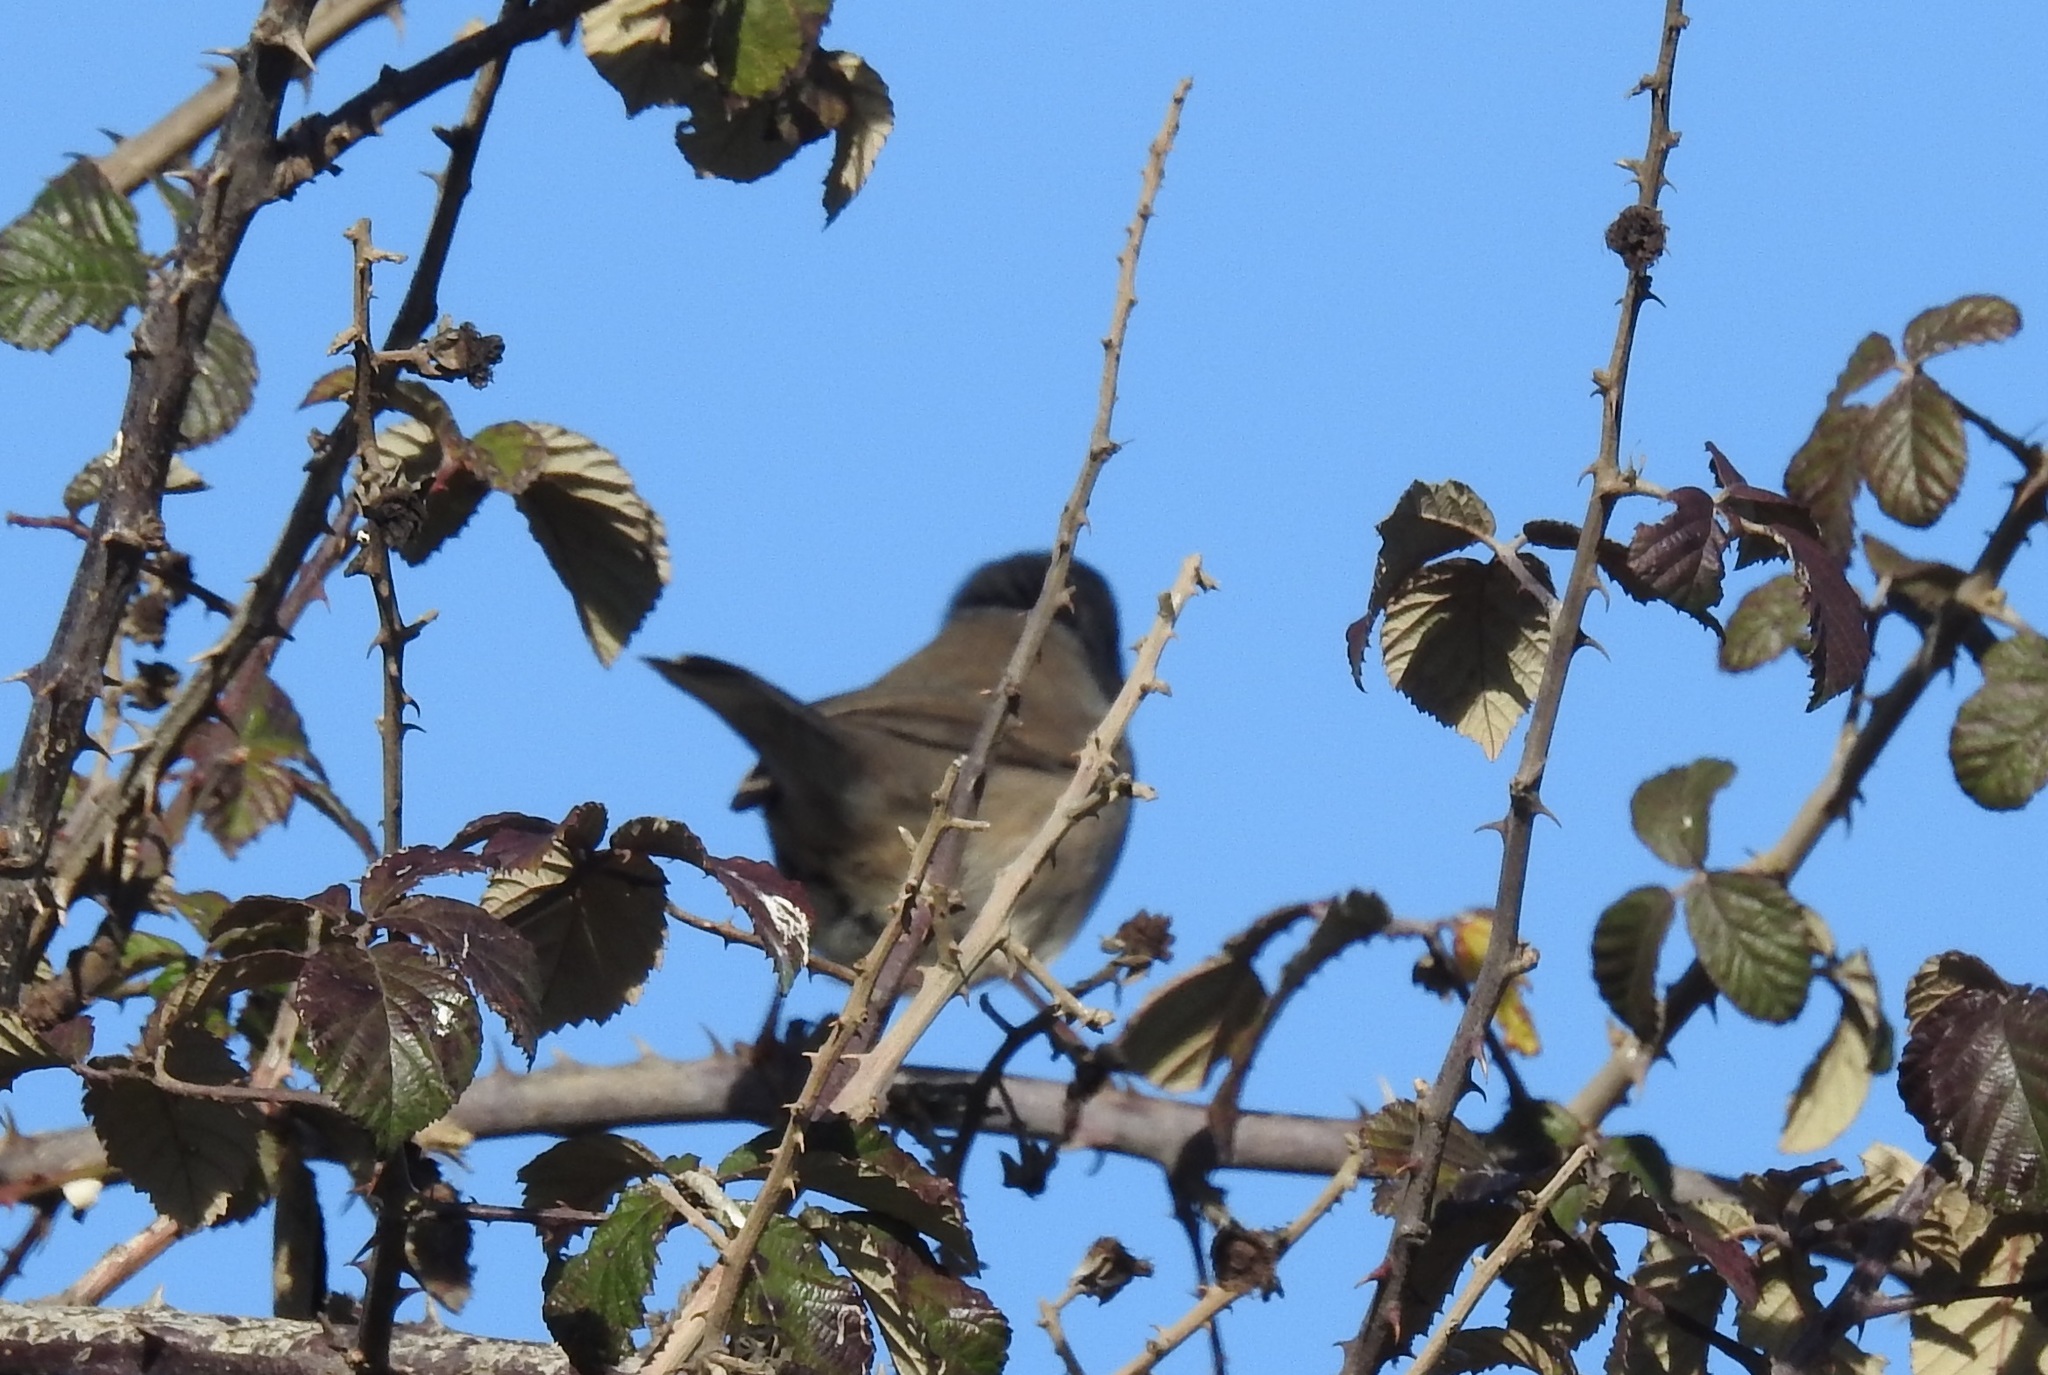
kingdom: Animalia
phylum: Chordata
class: Aves
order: Passeriformes
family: Sylviidae
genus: Curruca
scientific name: Curruca melanocephala
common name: Sardinian warbler
